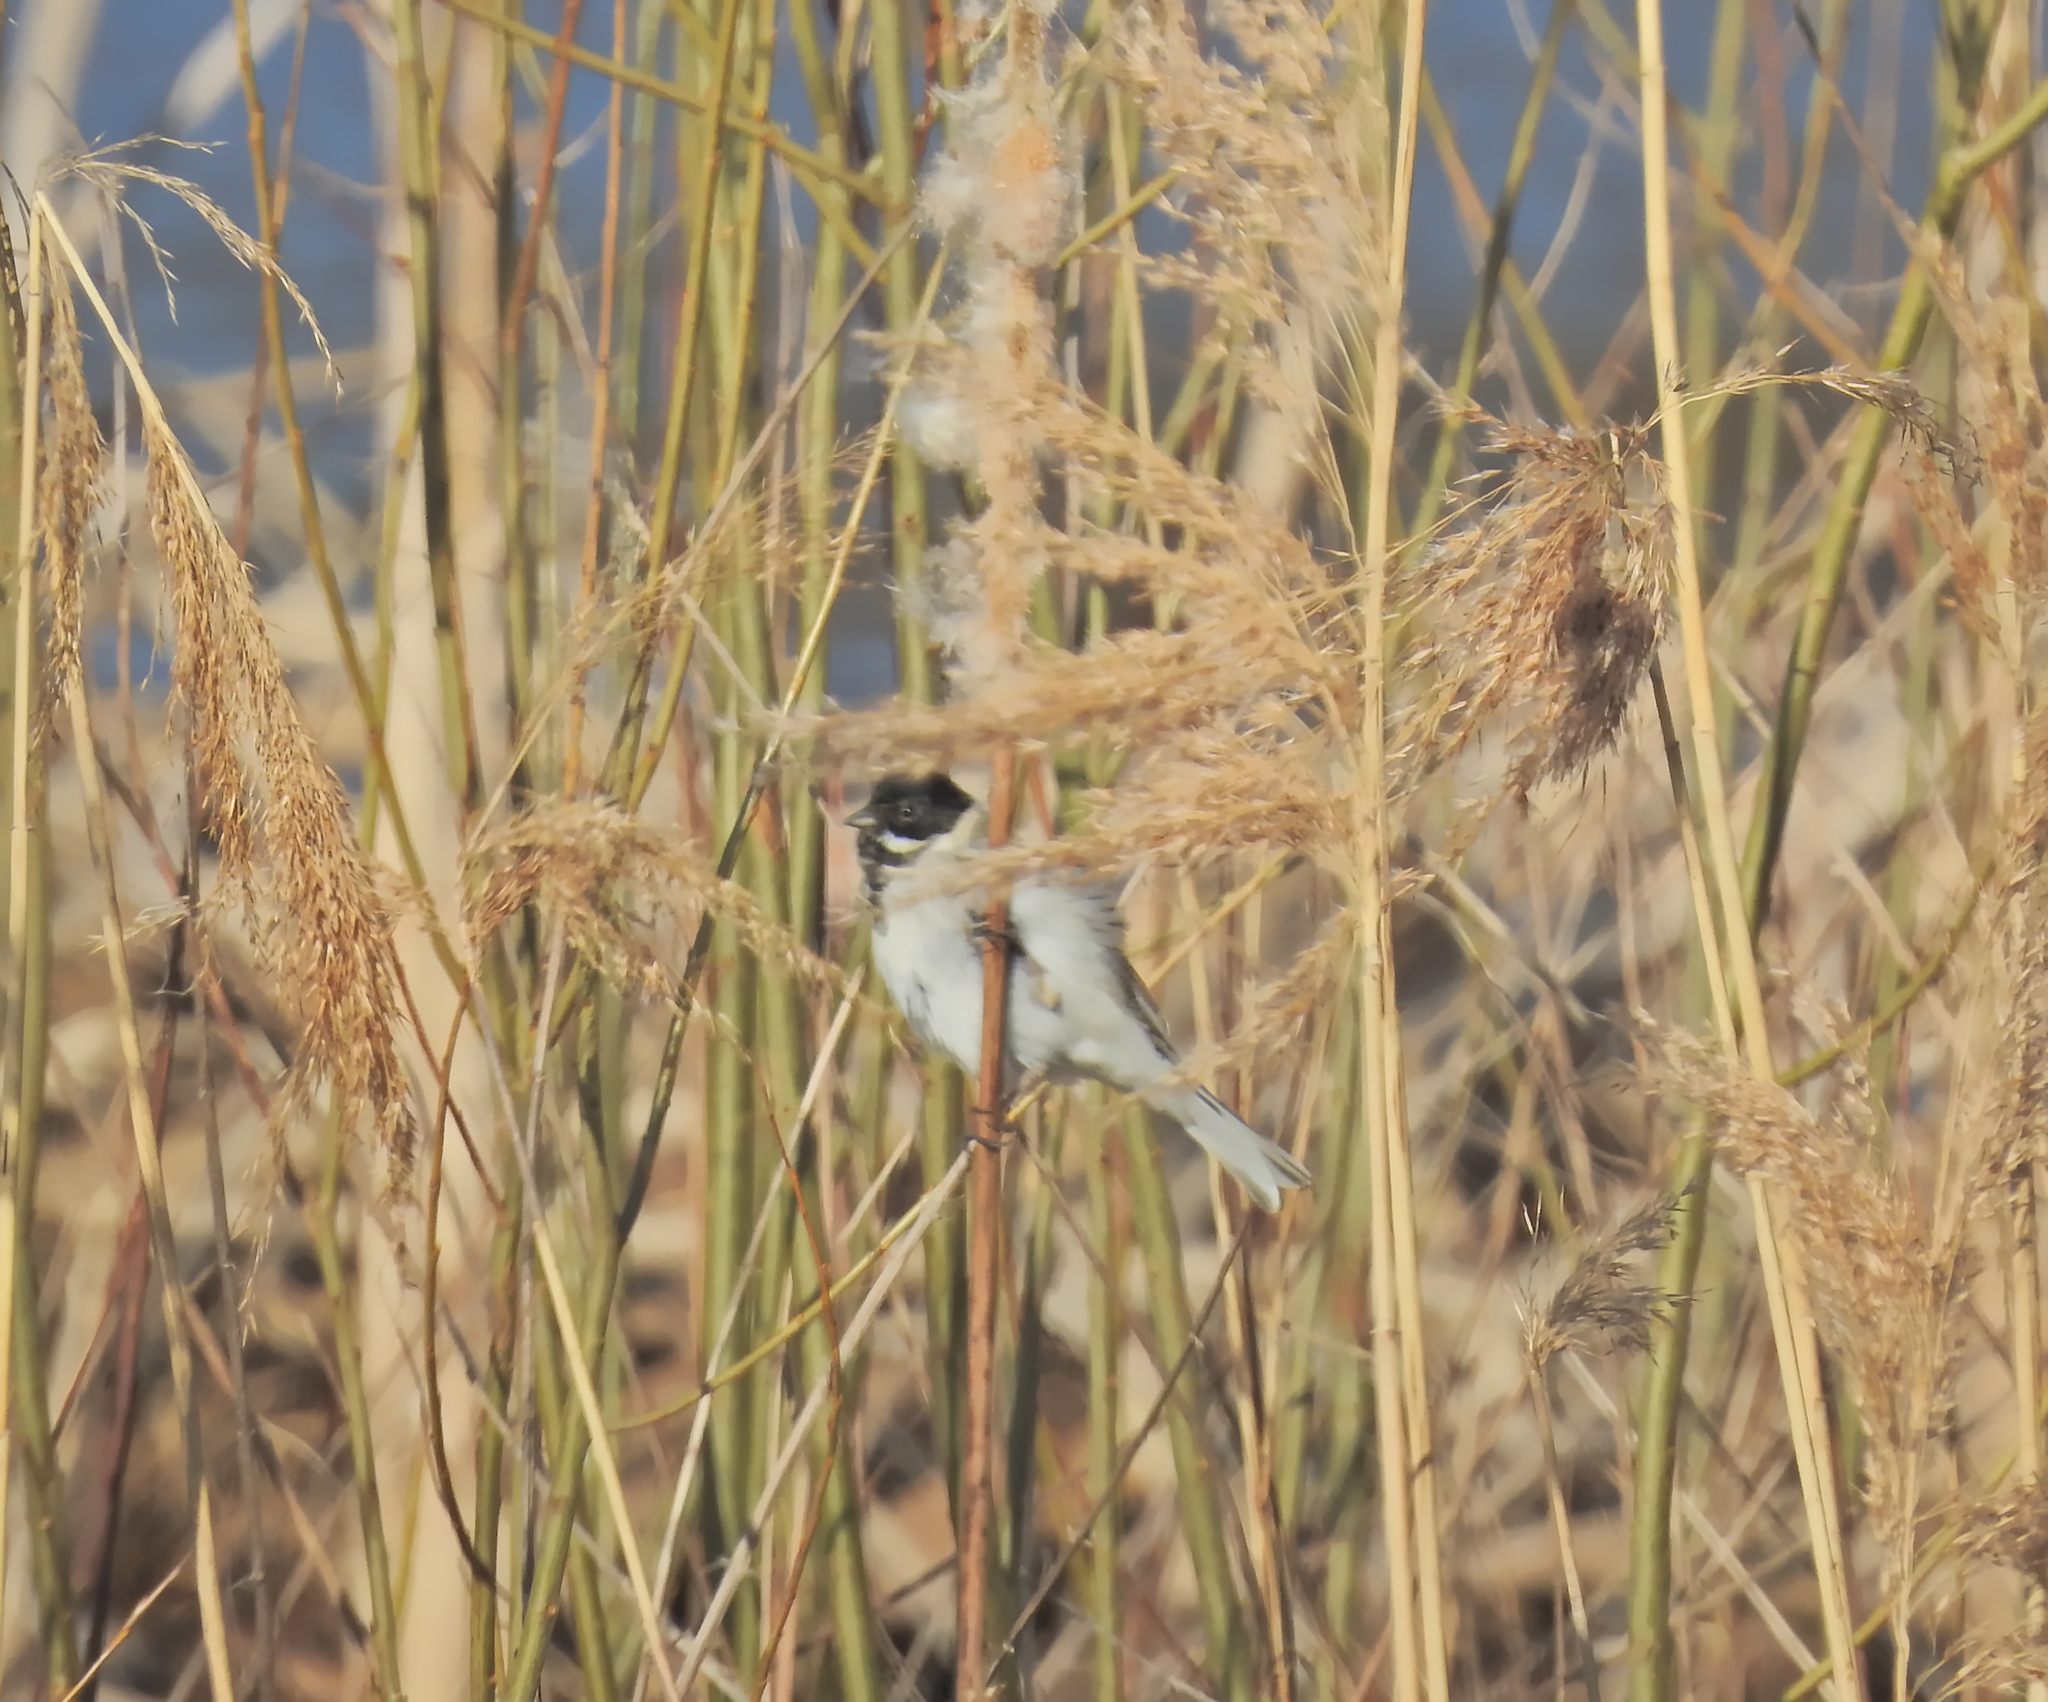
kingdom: Animalia
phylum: Chordata
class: Aves
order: Passeriformes
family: Emberizidae
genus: Emberiza
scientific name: Emberiza schoeniclus
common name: Reed bunting
